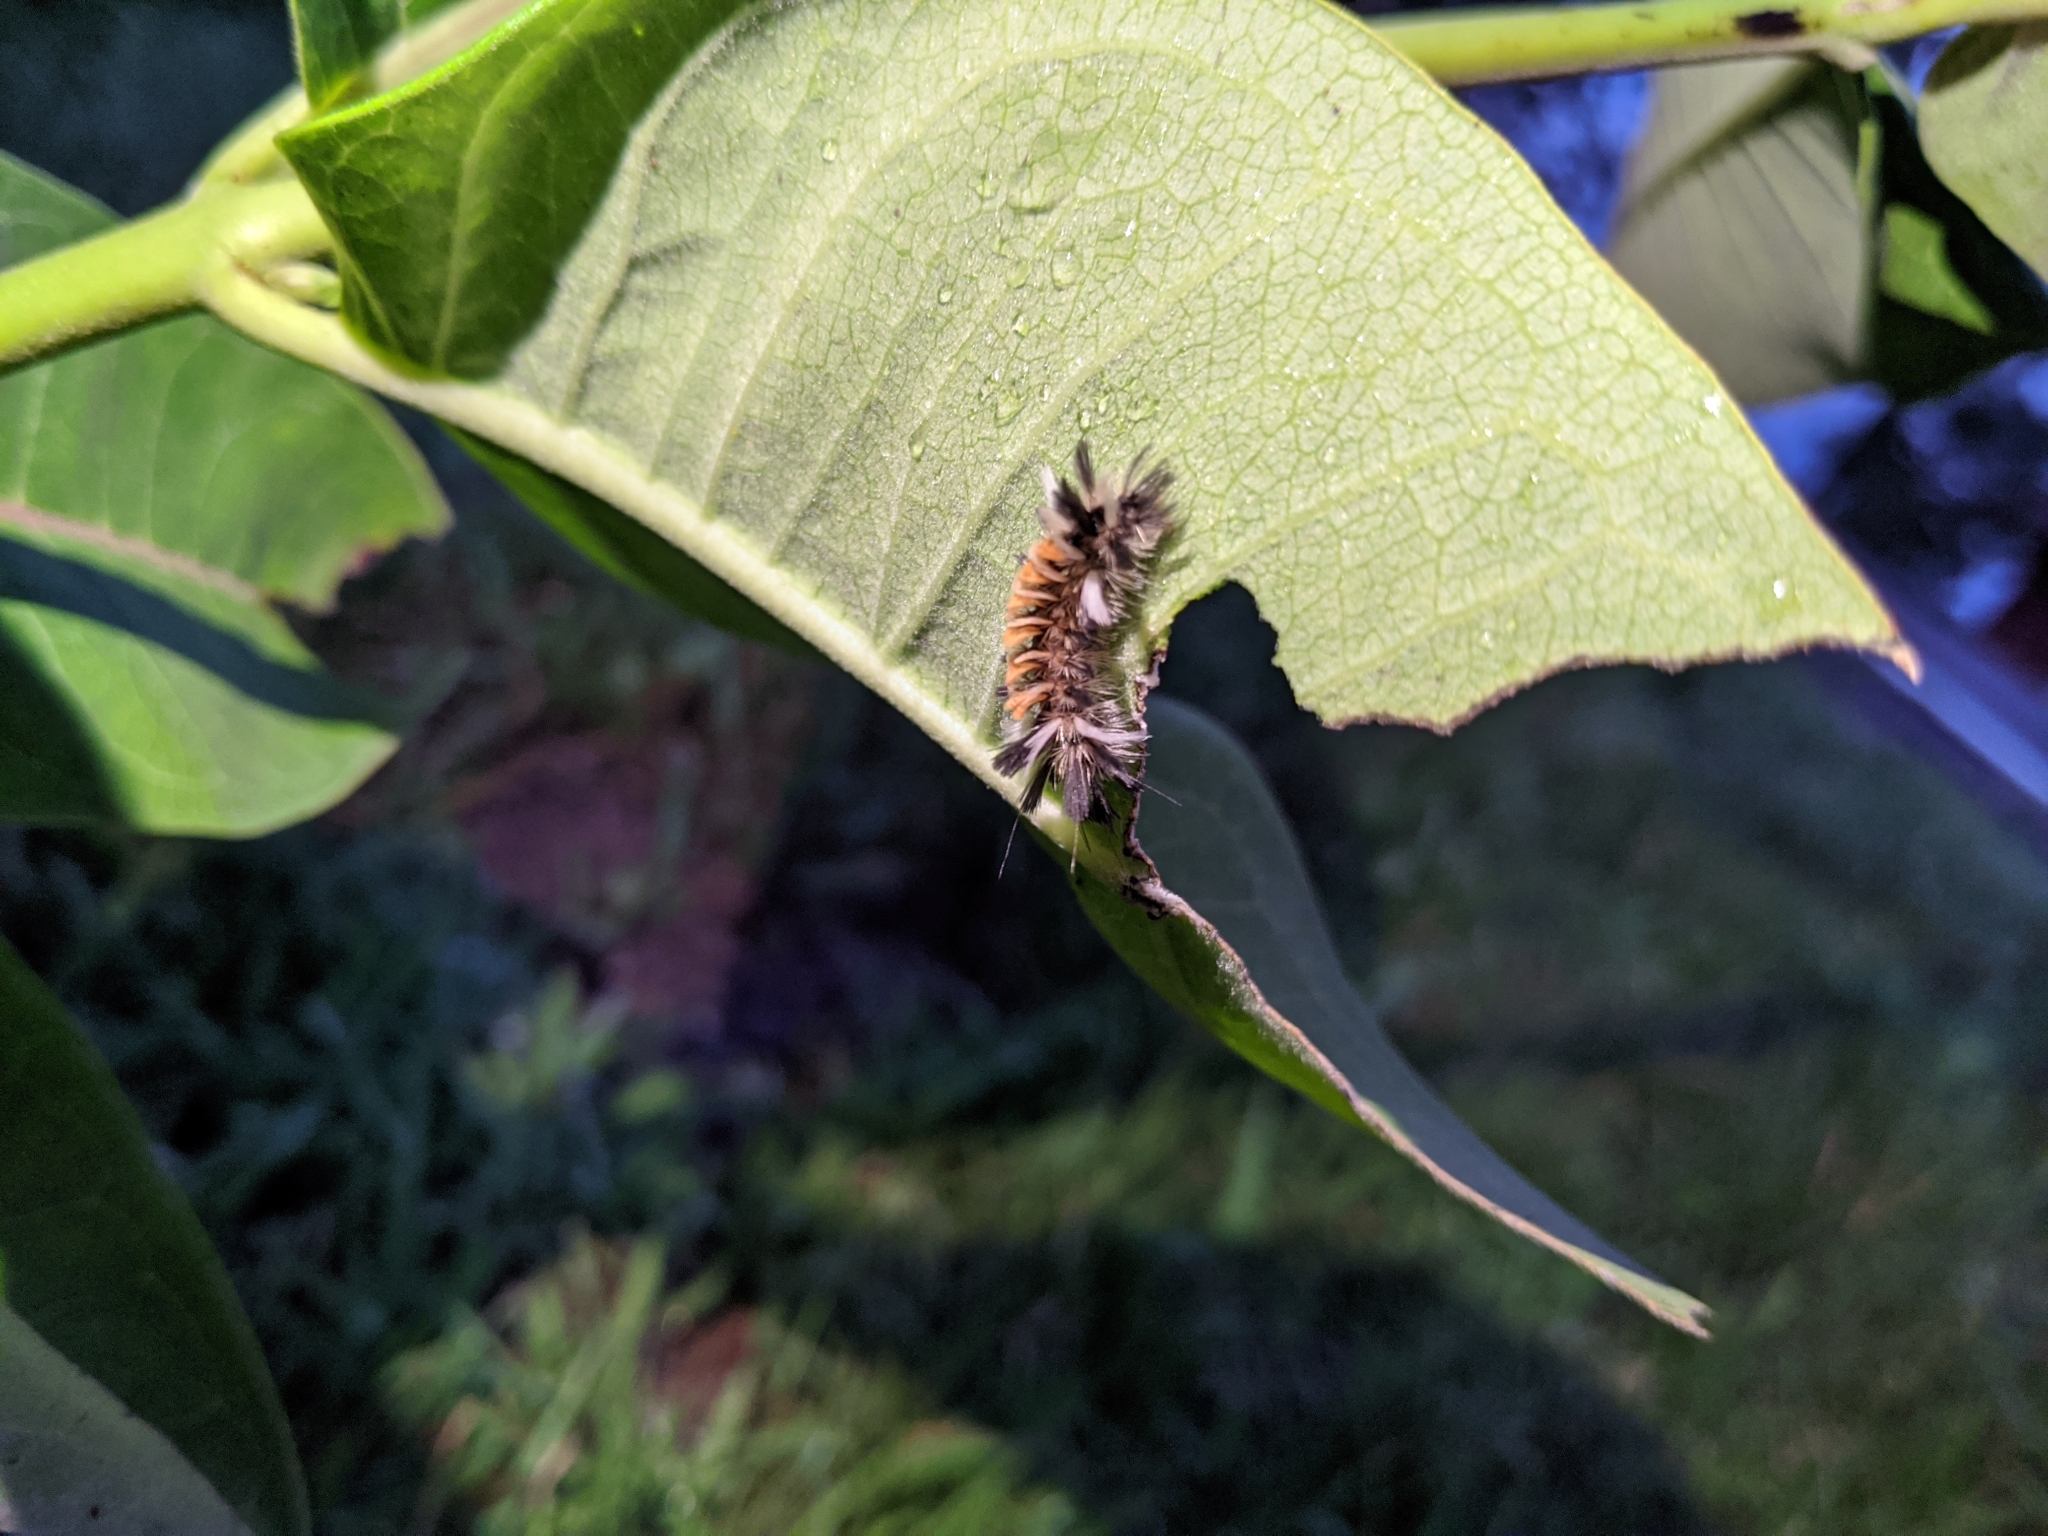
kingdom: Animalia
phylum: Arthropoda
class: Insecta
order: Lepidoptera
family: Erebidae
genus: Euchaetes
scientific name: Euchaetes egle
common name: Milkweed tussock moth
